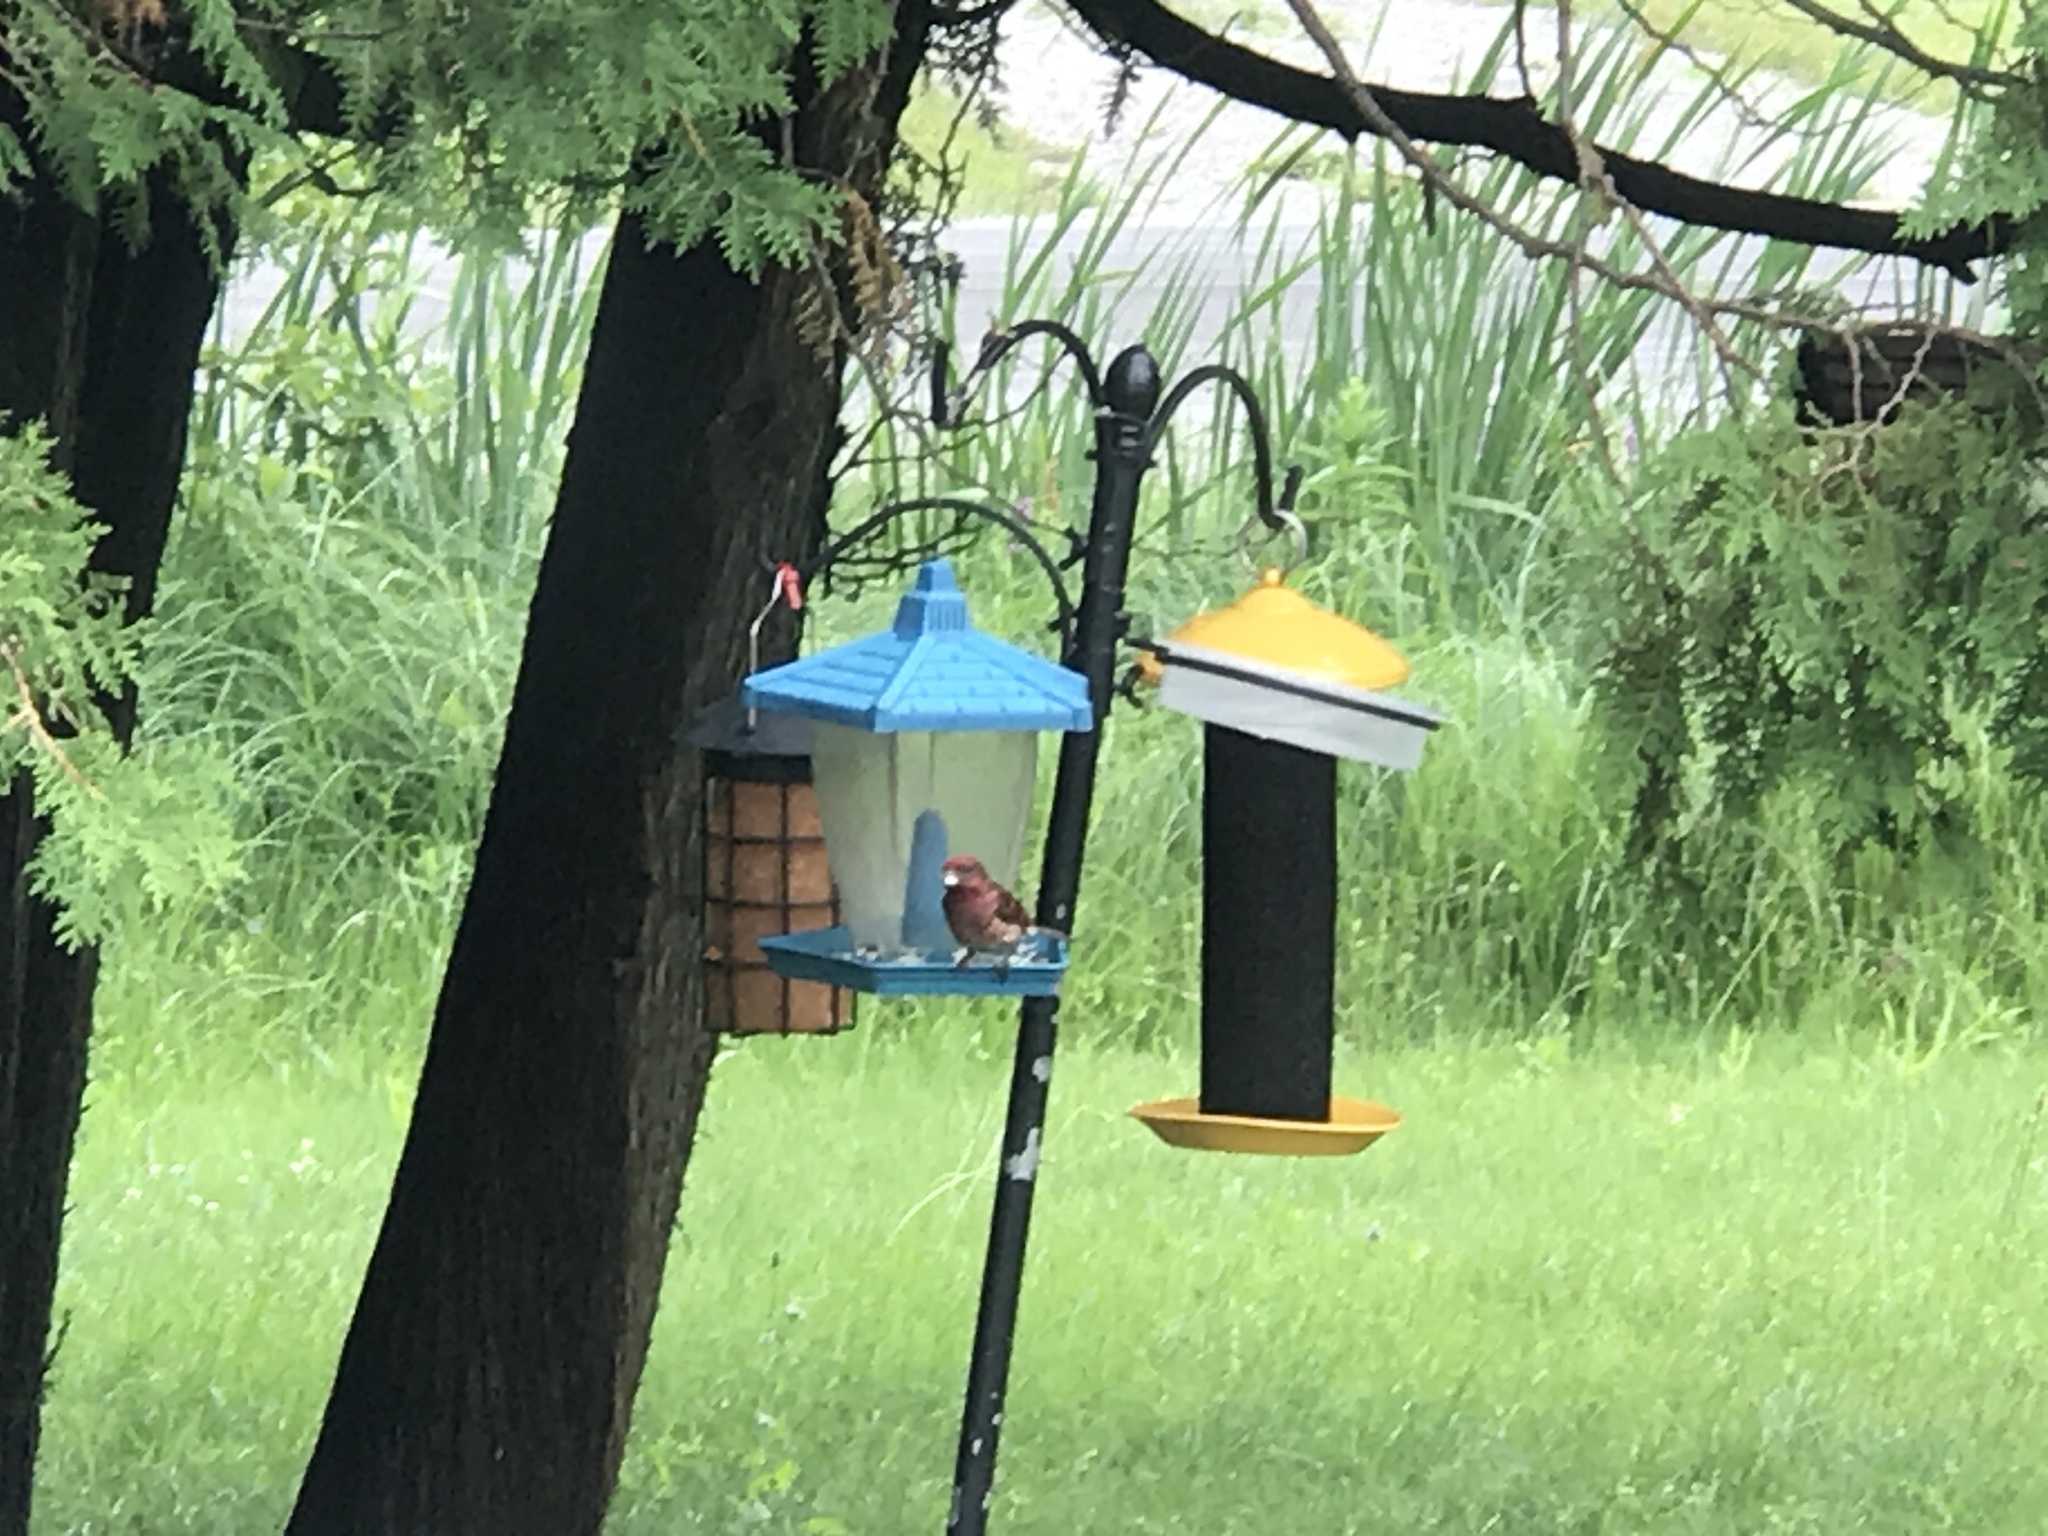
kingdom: Animalia
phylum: Chordata
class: Aves
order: Passeriformes
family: Fringillidae
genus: Haemorhous
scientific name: Haemorhous purpureus
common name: Purple finch
